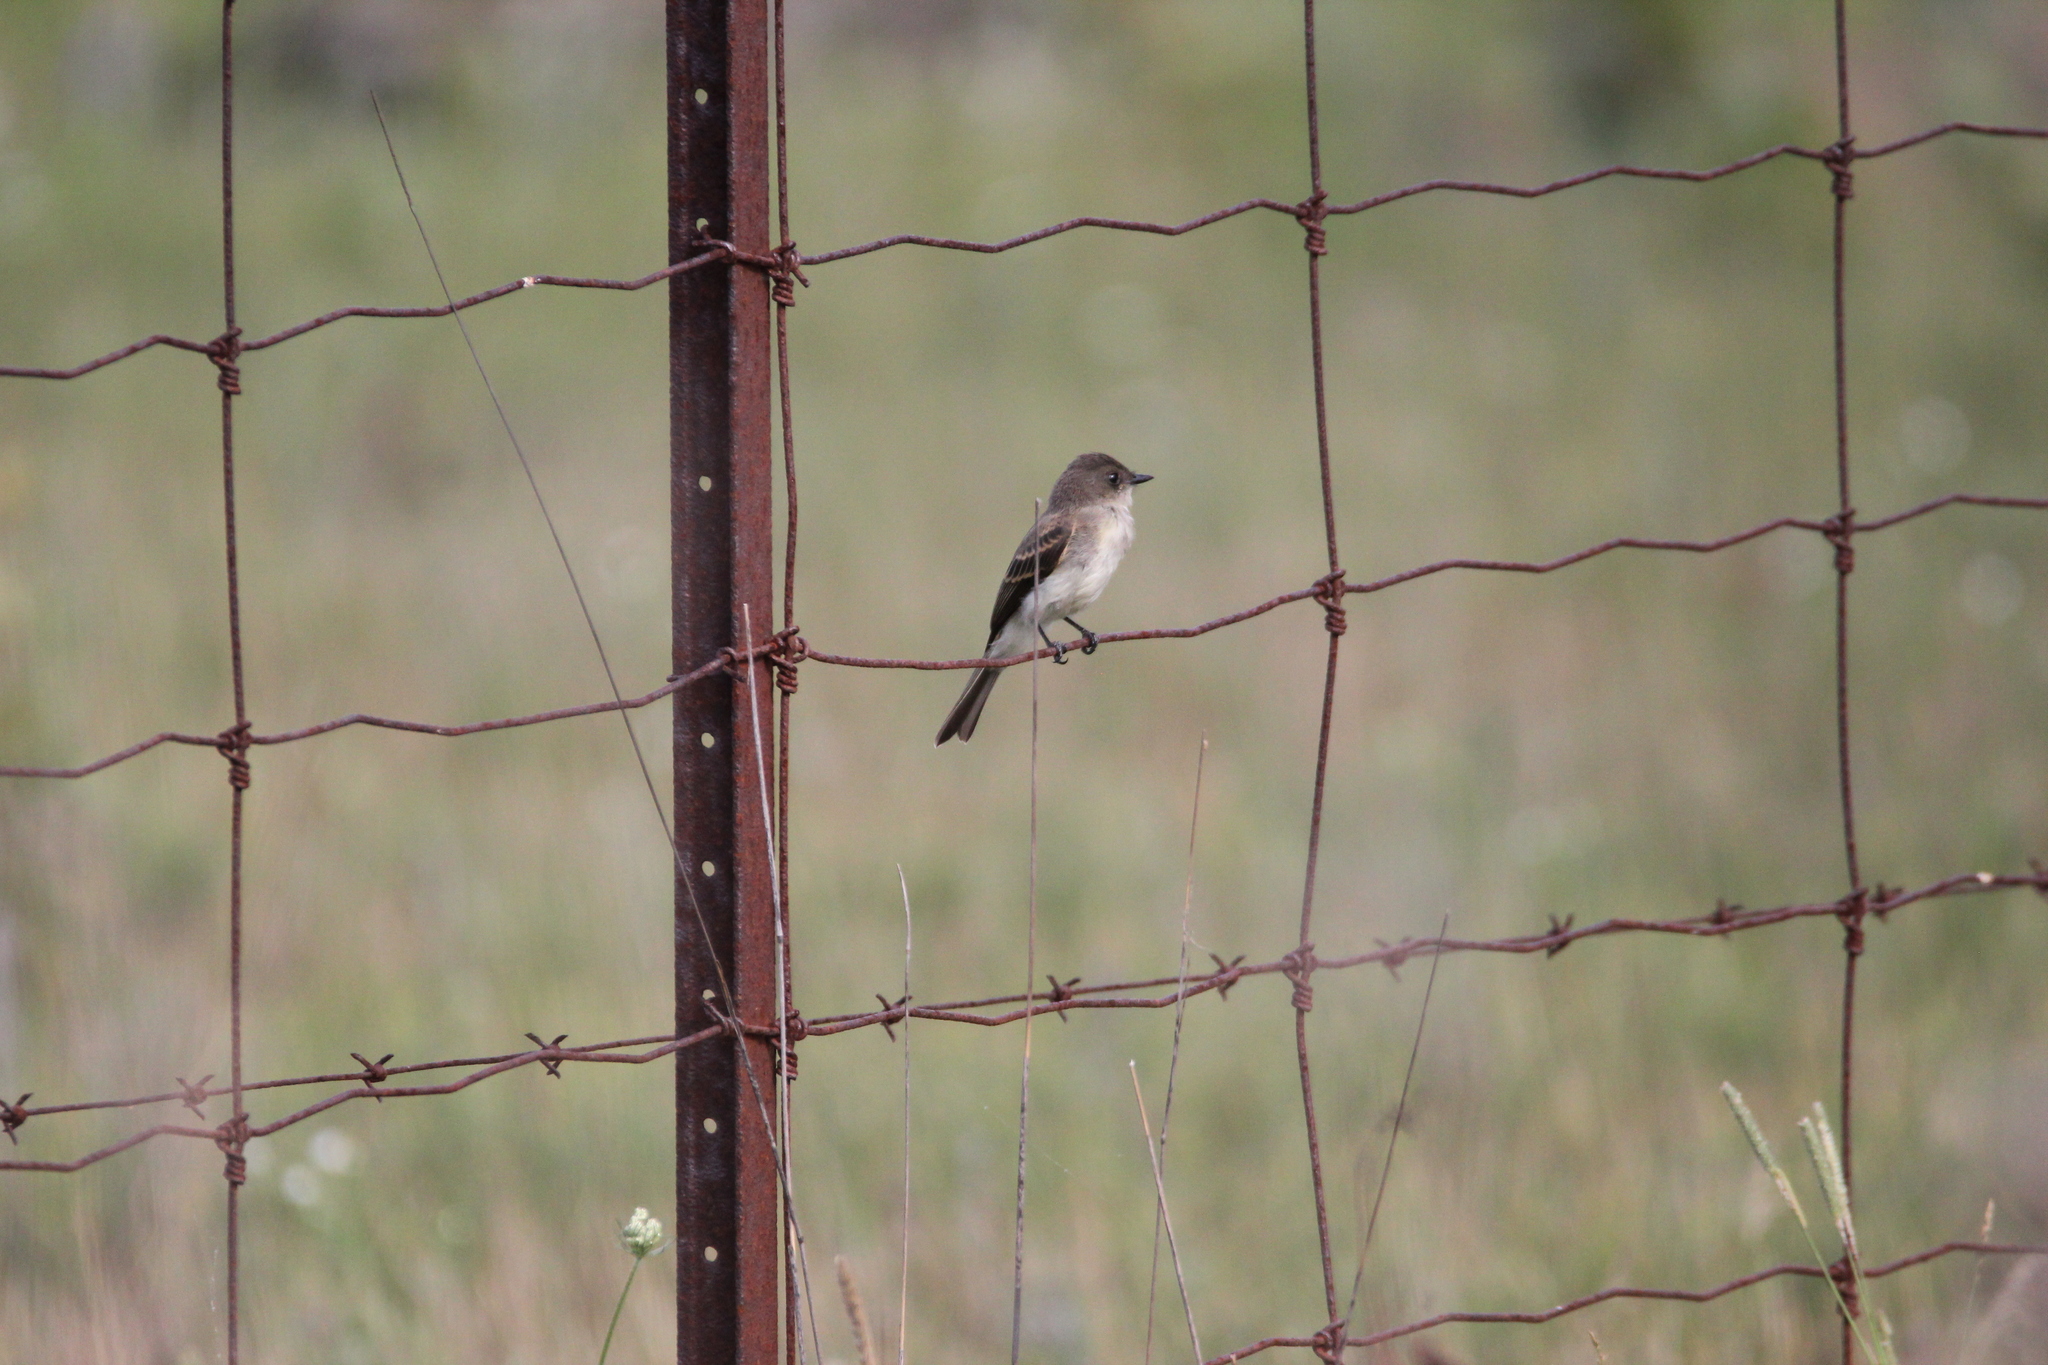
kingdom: Animalia
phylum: Chordata
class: Aves
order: Passeriformes
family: Tyrannidae
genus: Sayornis
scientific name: Sayornis phoebe
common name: Eastern phoebe
